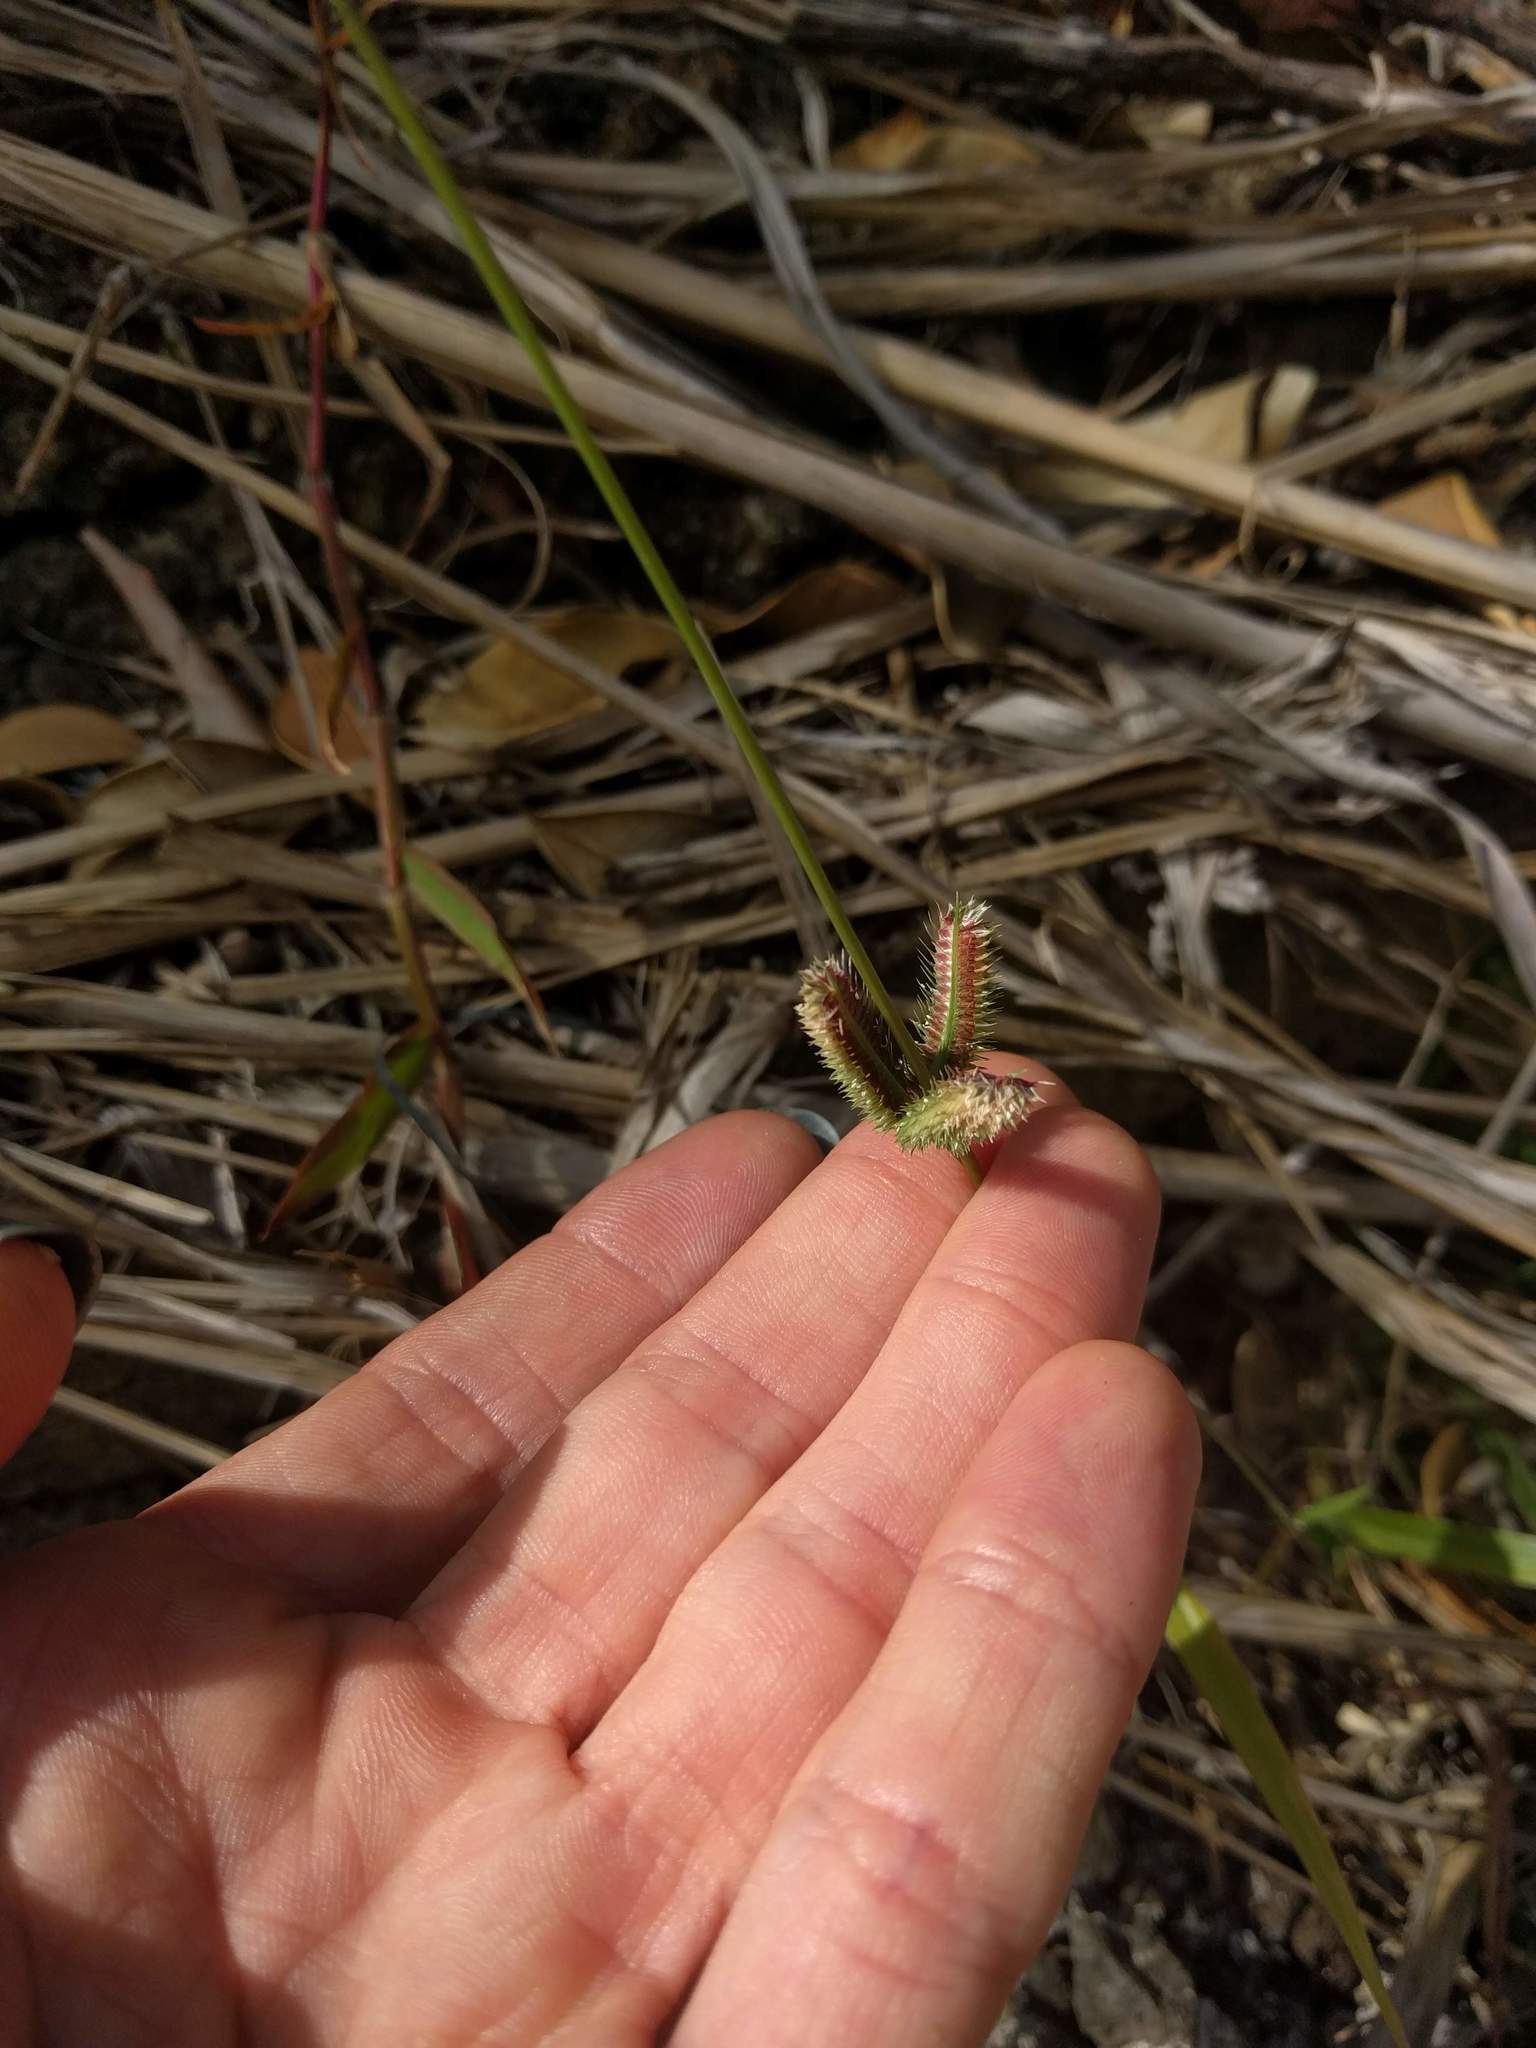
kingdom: Plantae
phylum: Tracheophyta
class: Liliopsida
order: Poales
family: Poaceae
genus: Dactyloctenium
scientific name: Dactyloctenium aegyptium
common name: Egyptian grass
